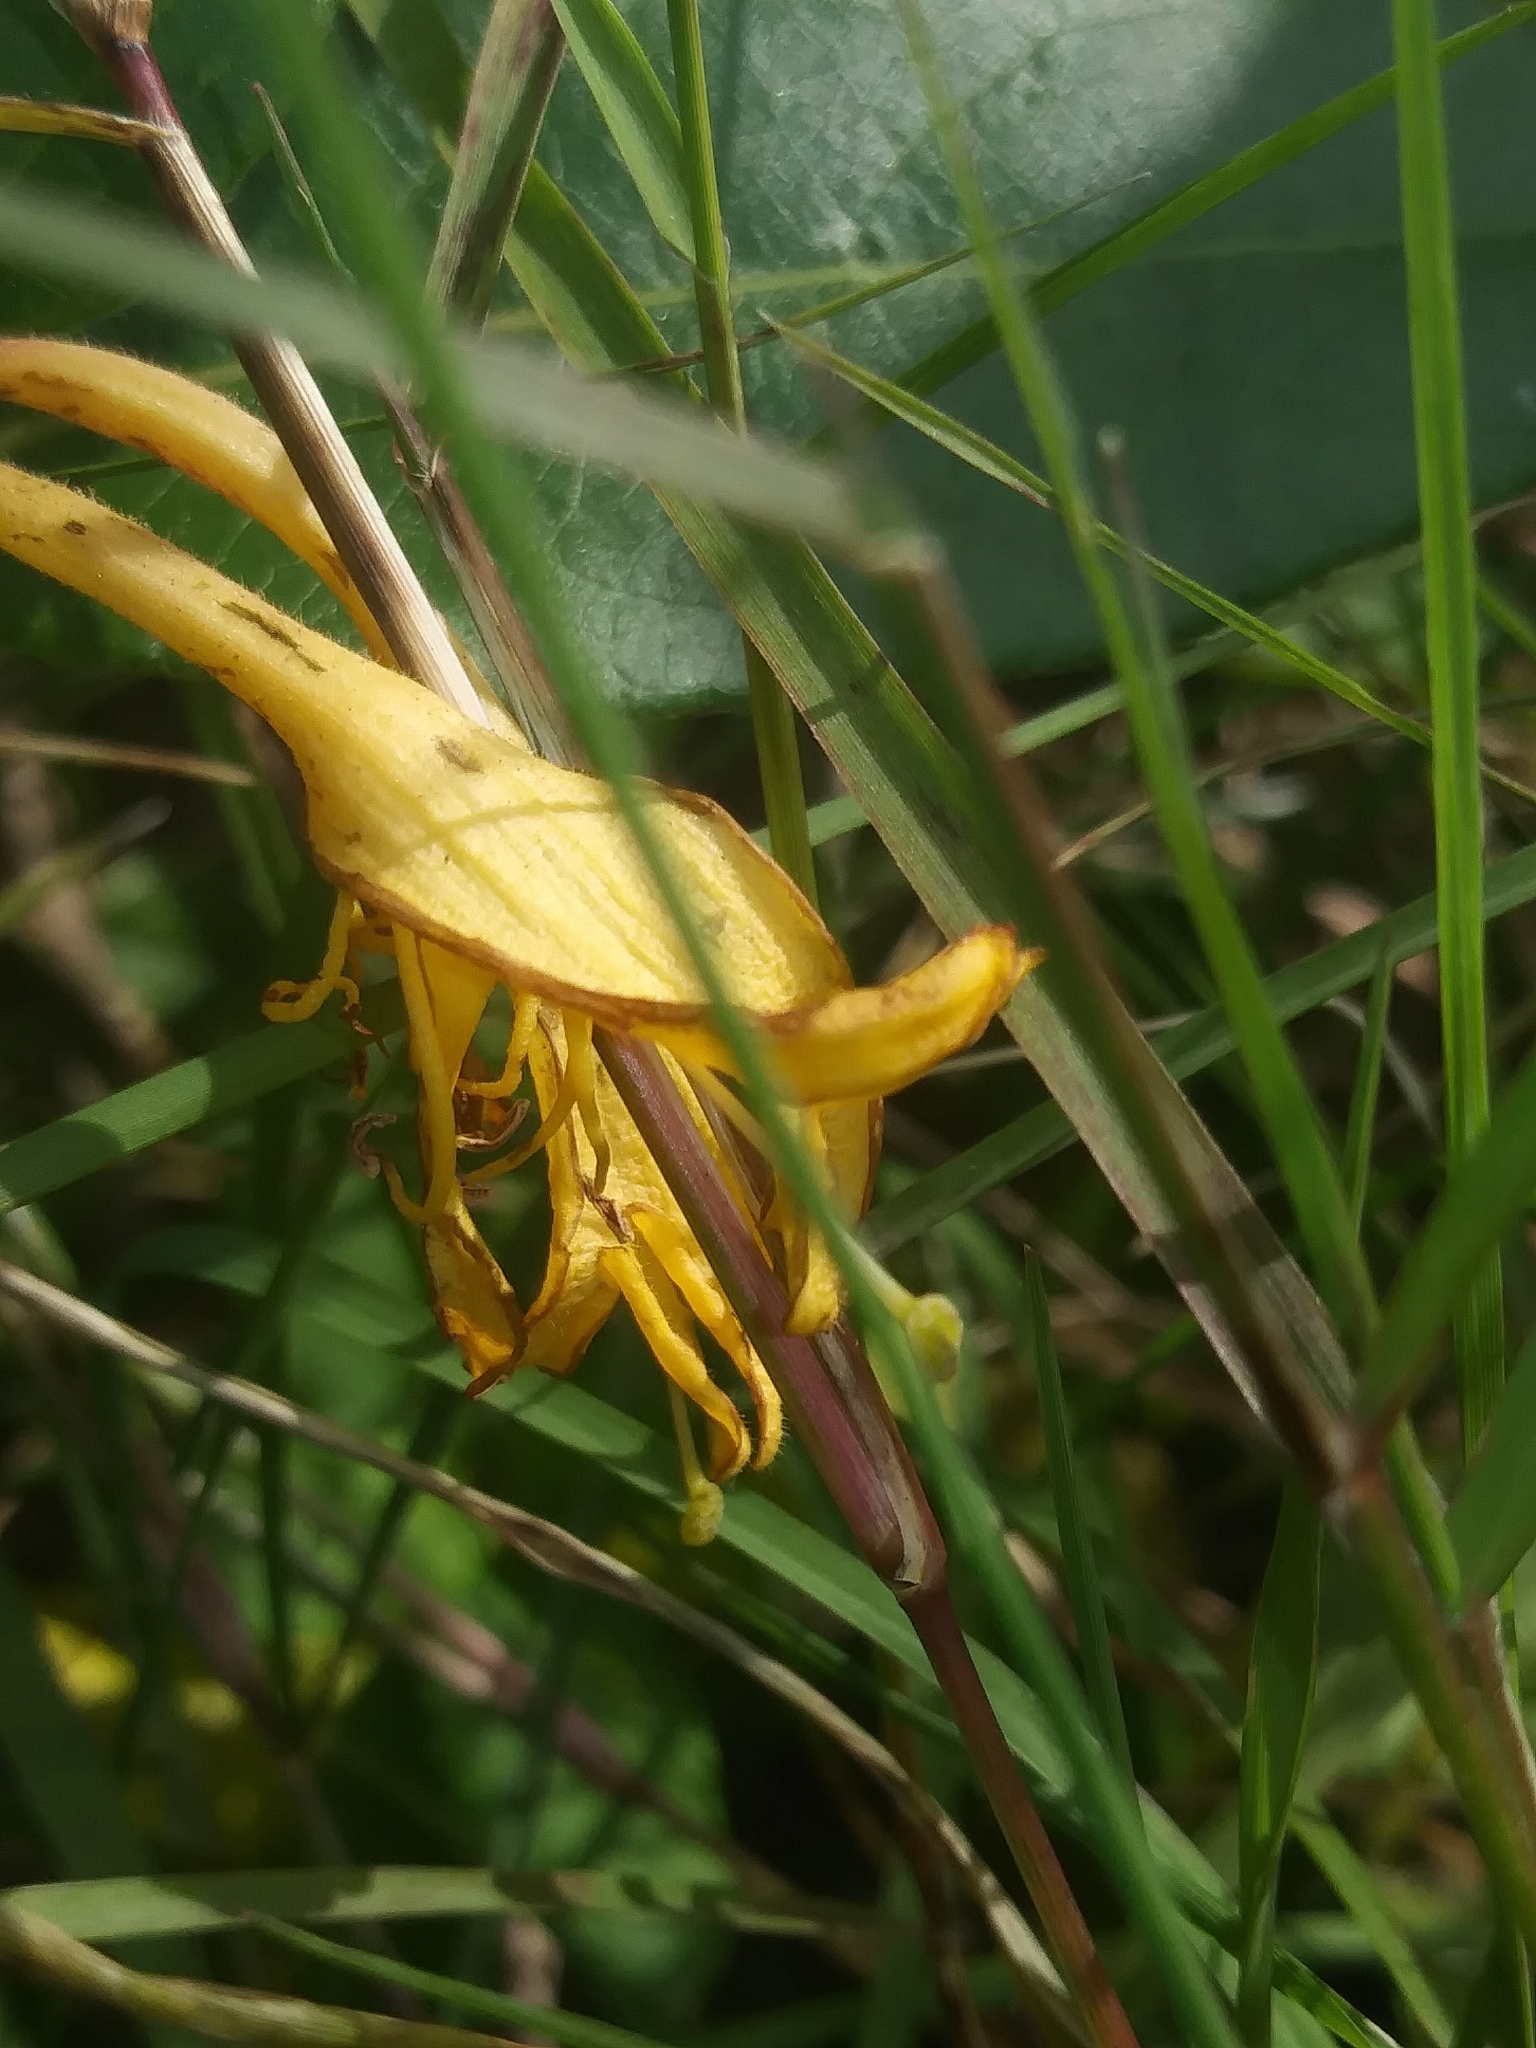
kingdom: Plantae
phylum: Tracheophyta
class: Magnoliopsida
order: Dipsacales
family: Caprifoliaceae
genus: Lonicera
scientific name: Lonicera japonica
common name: Japanese honeysuckle
